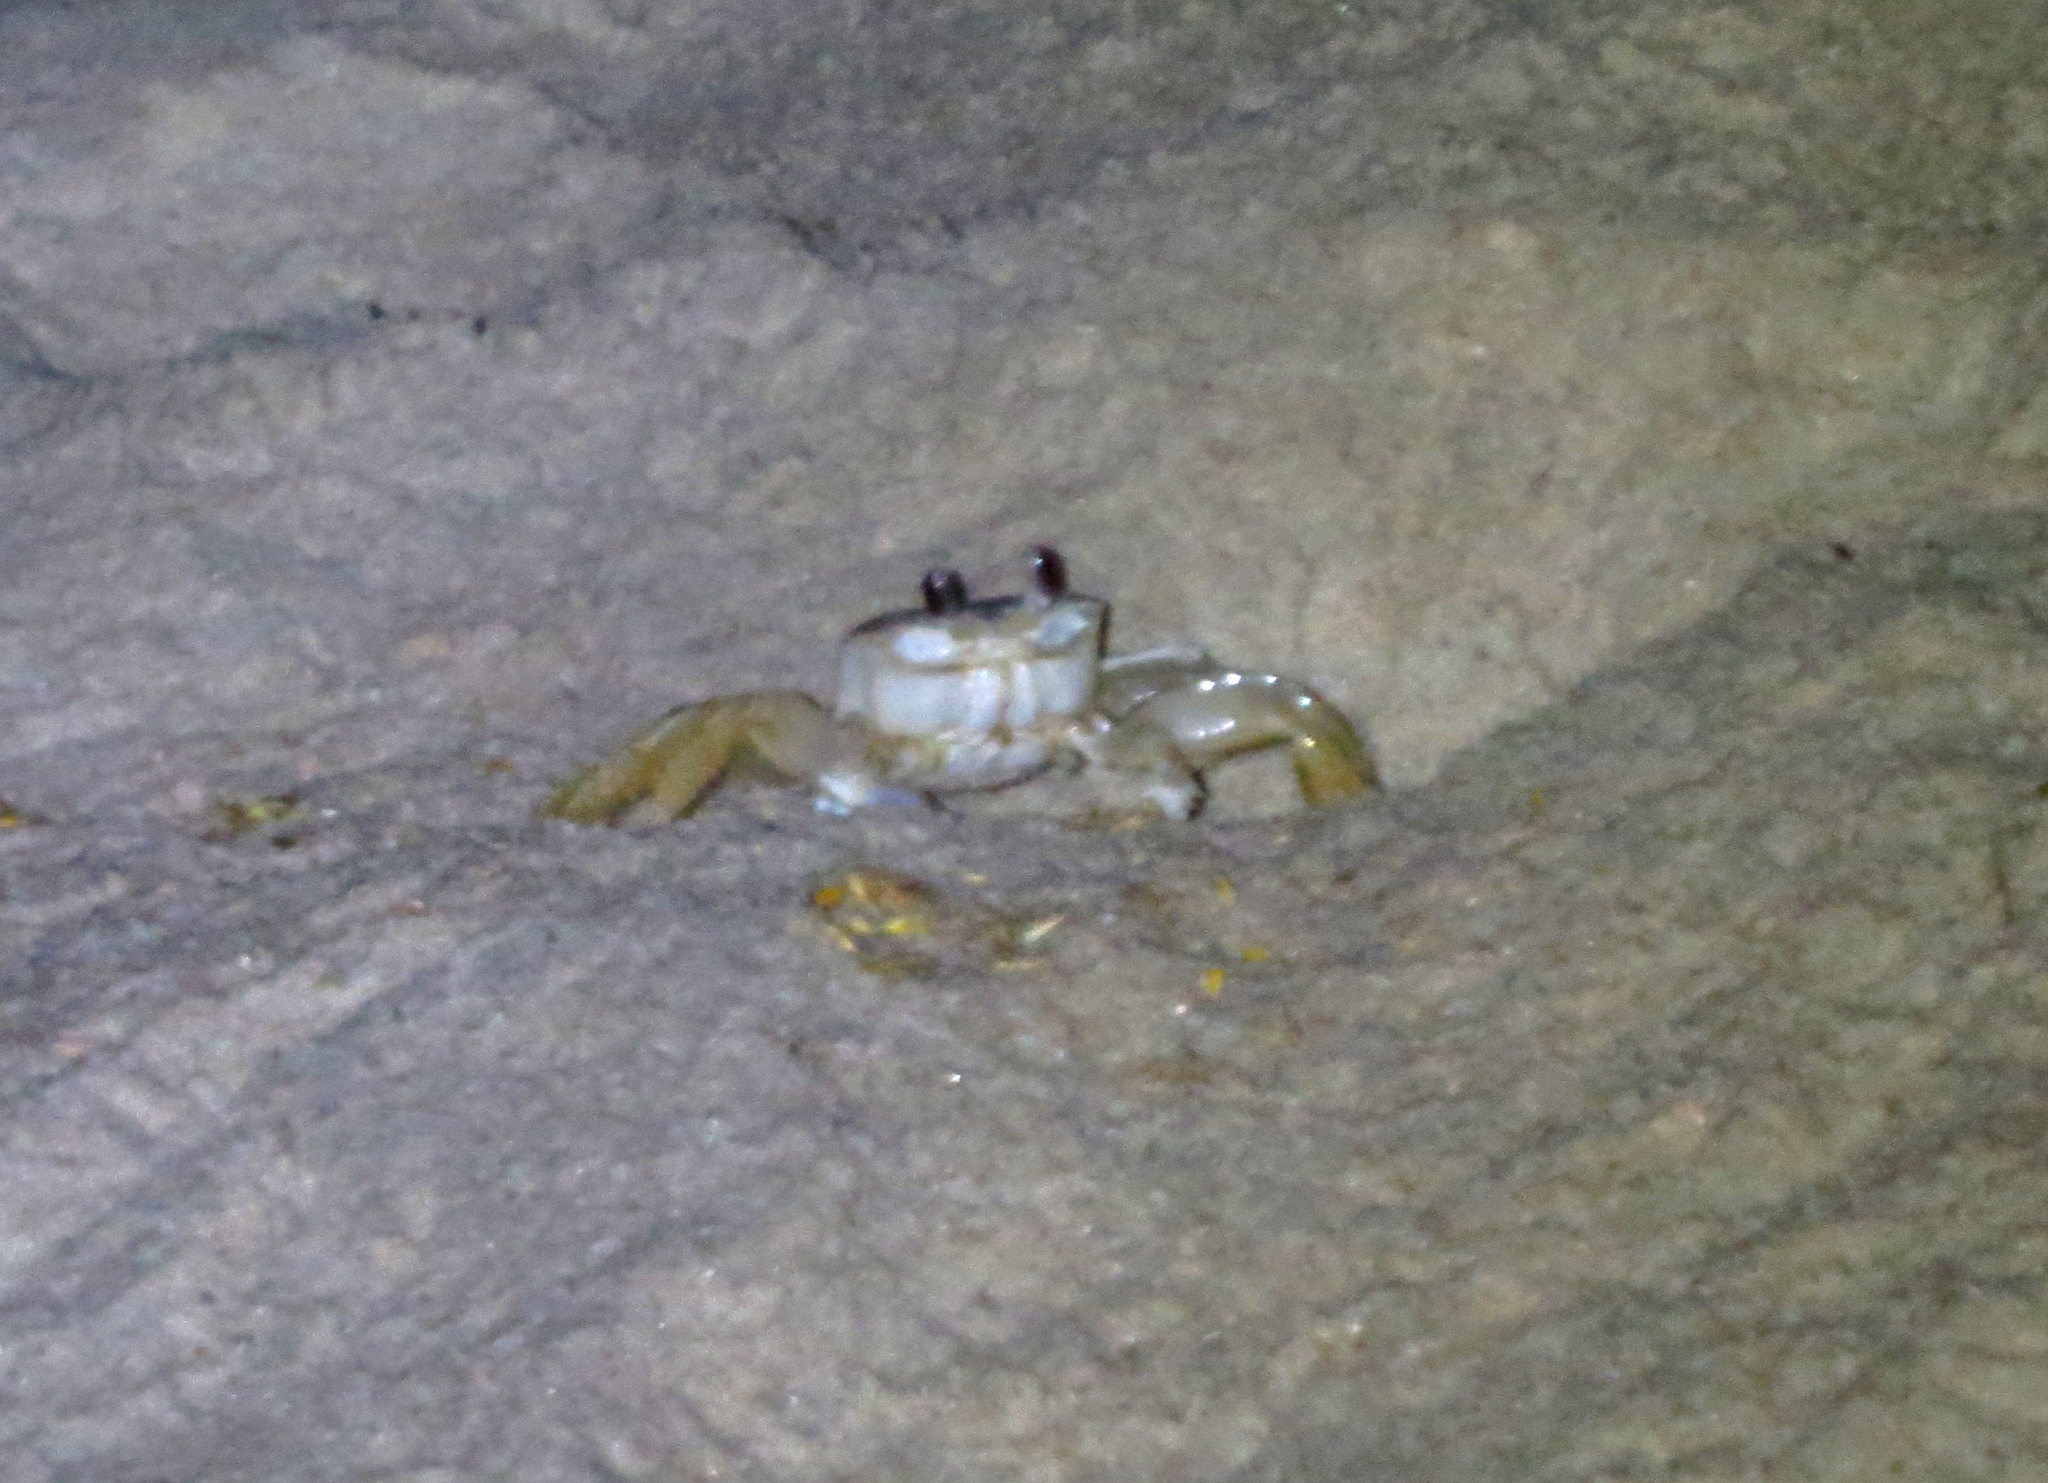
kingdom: Animalia
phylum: Arthropoda
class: Malacostraca
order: Decapoda
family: Ocypodidae
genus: Ocypode
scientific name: Ocypode quadrata
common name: Ghost crab
